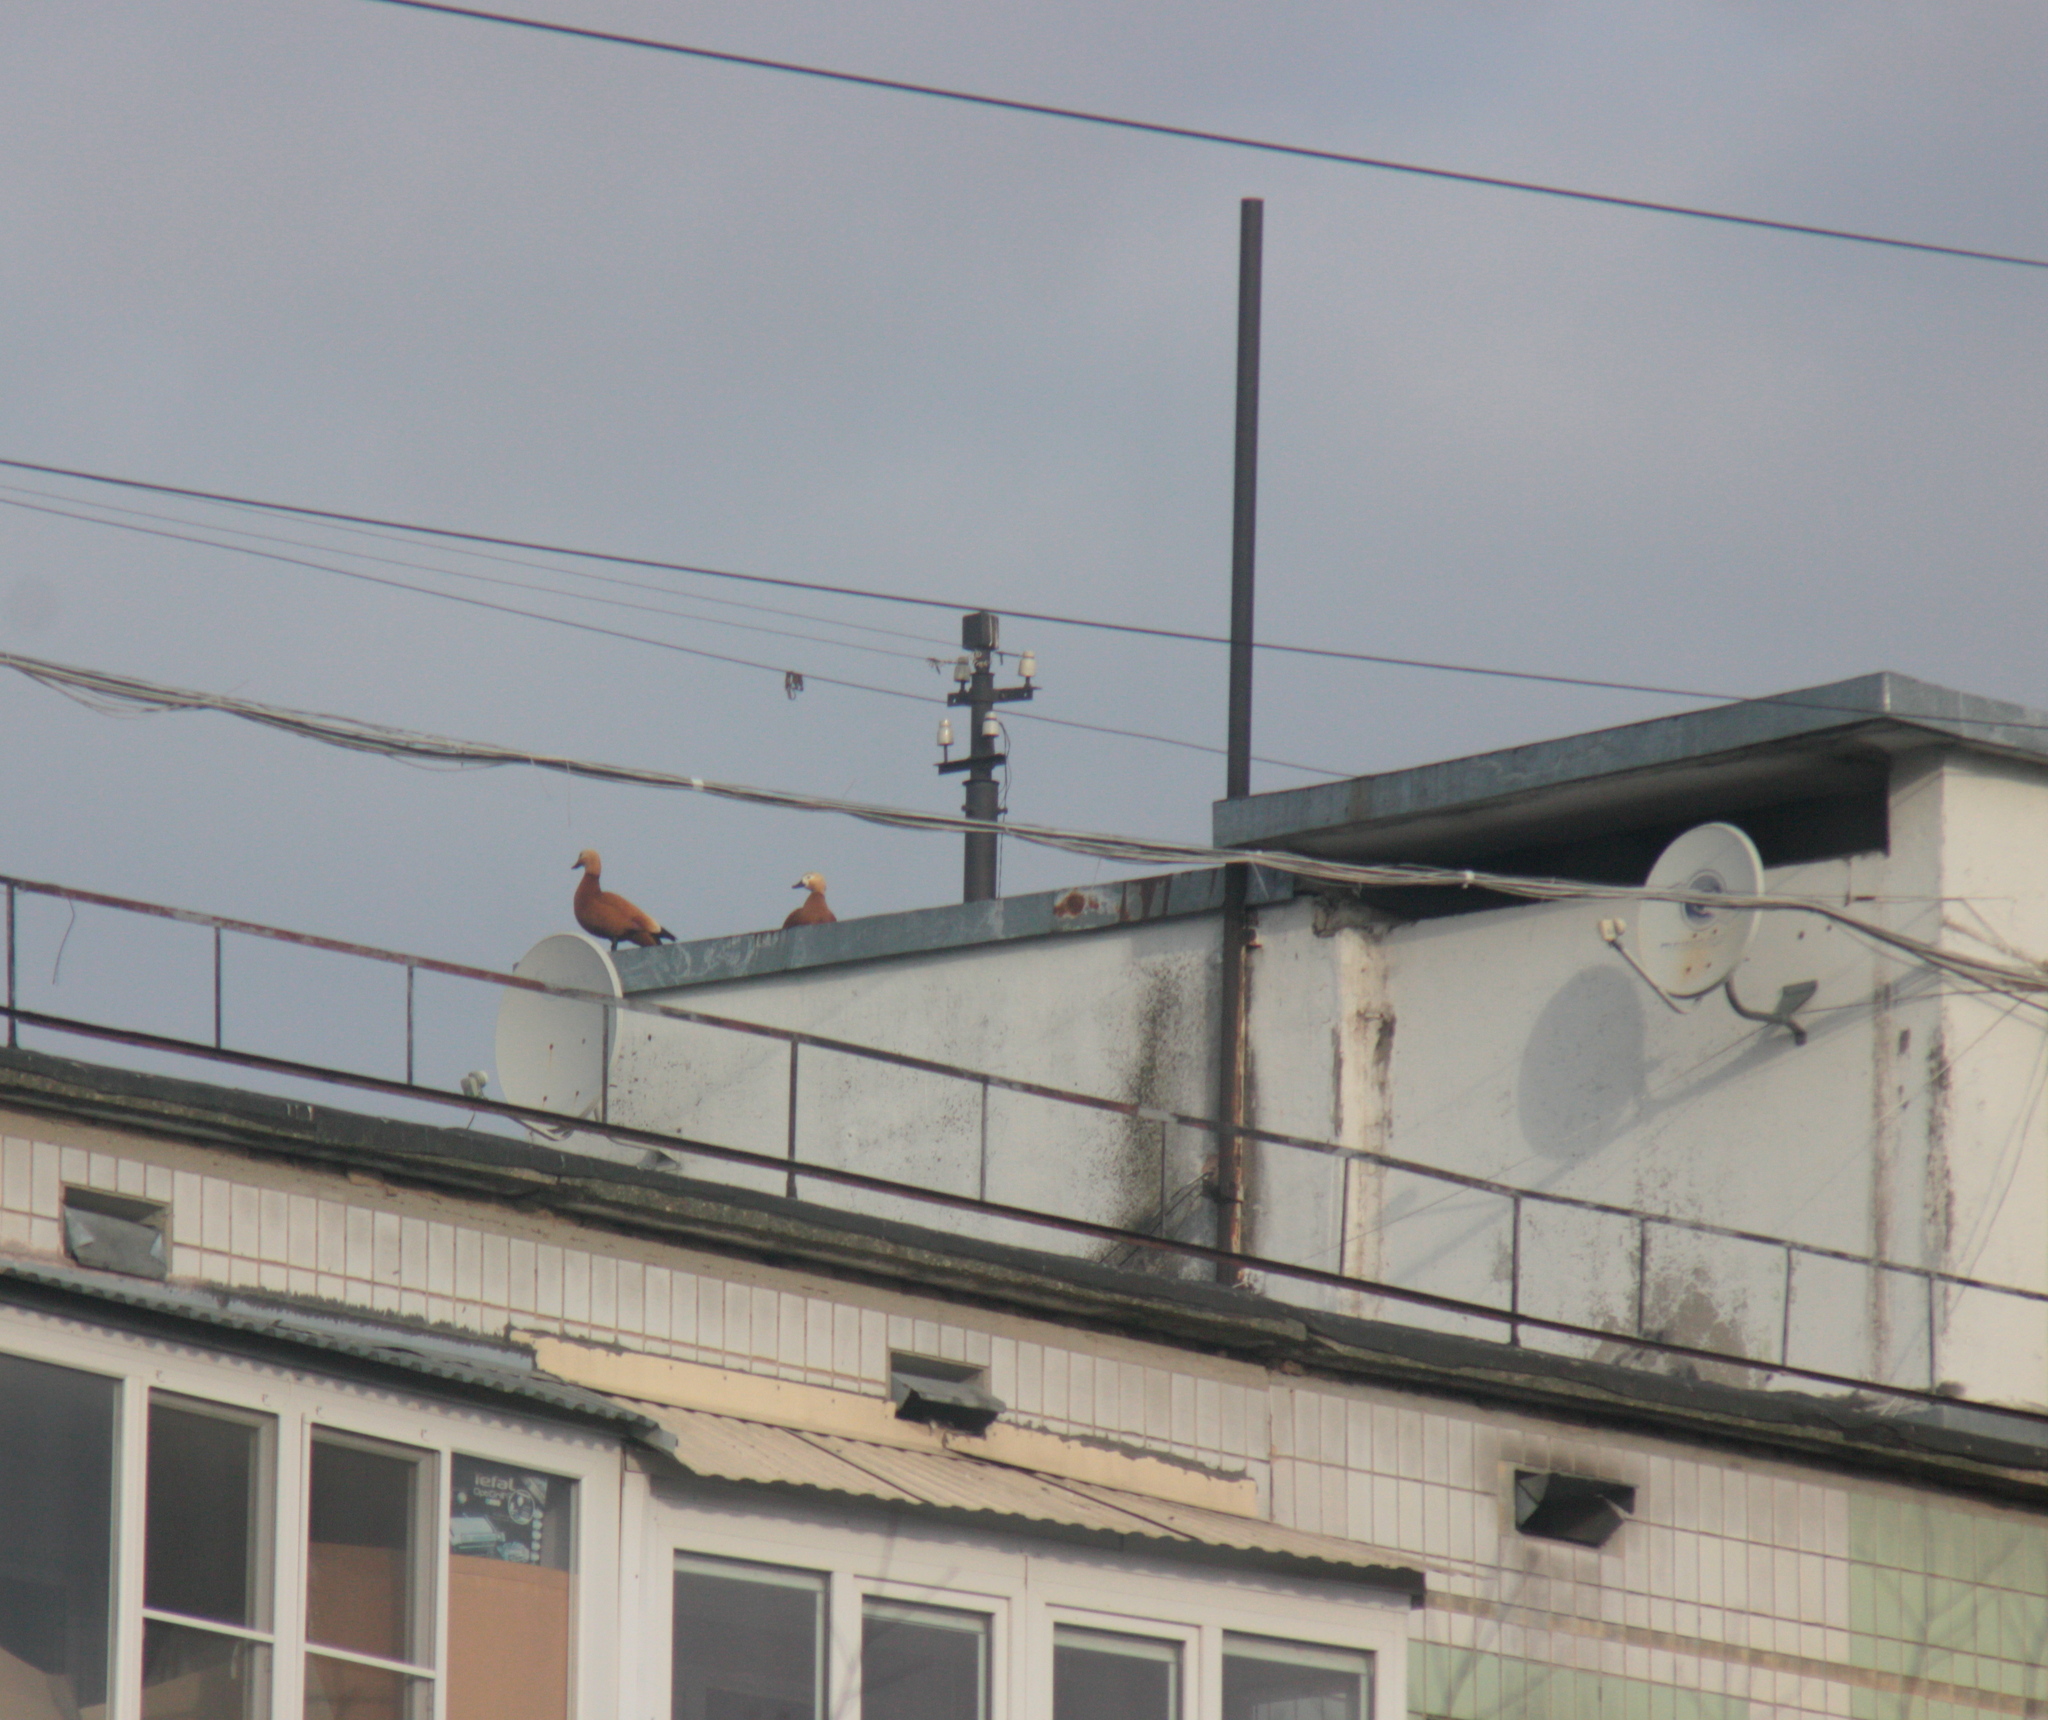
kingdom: Animalia
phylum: Chordata
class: Aves
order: Anseriformes
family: Anatidae
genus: Tadorna
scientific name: Tadorna ferruginea
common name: Ruddy shelduck
